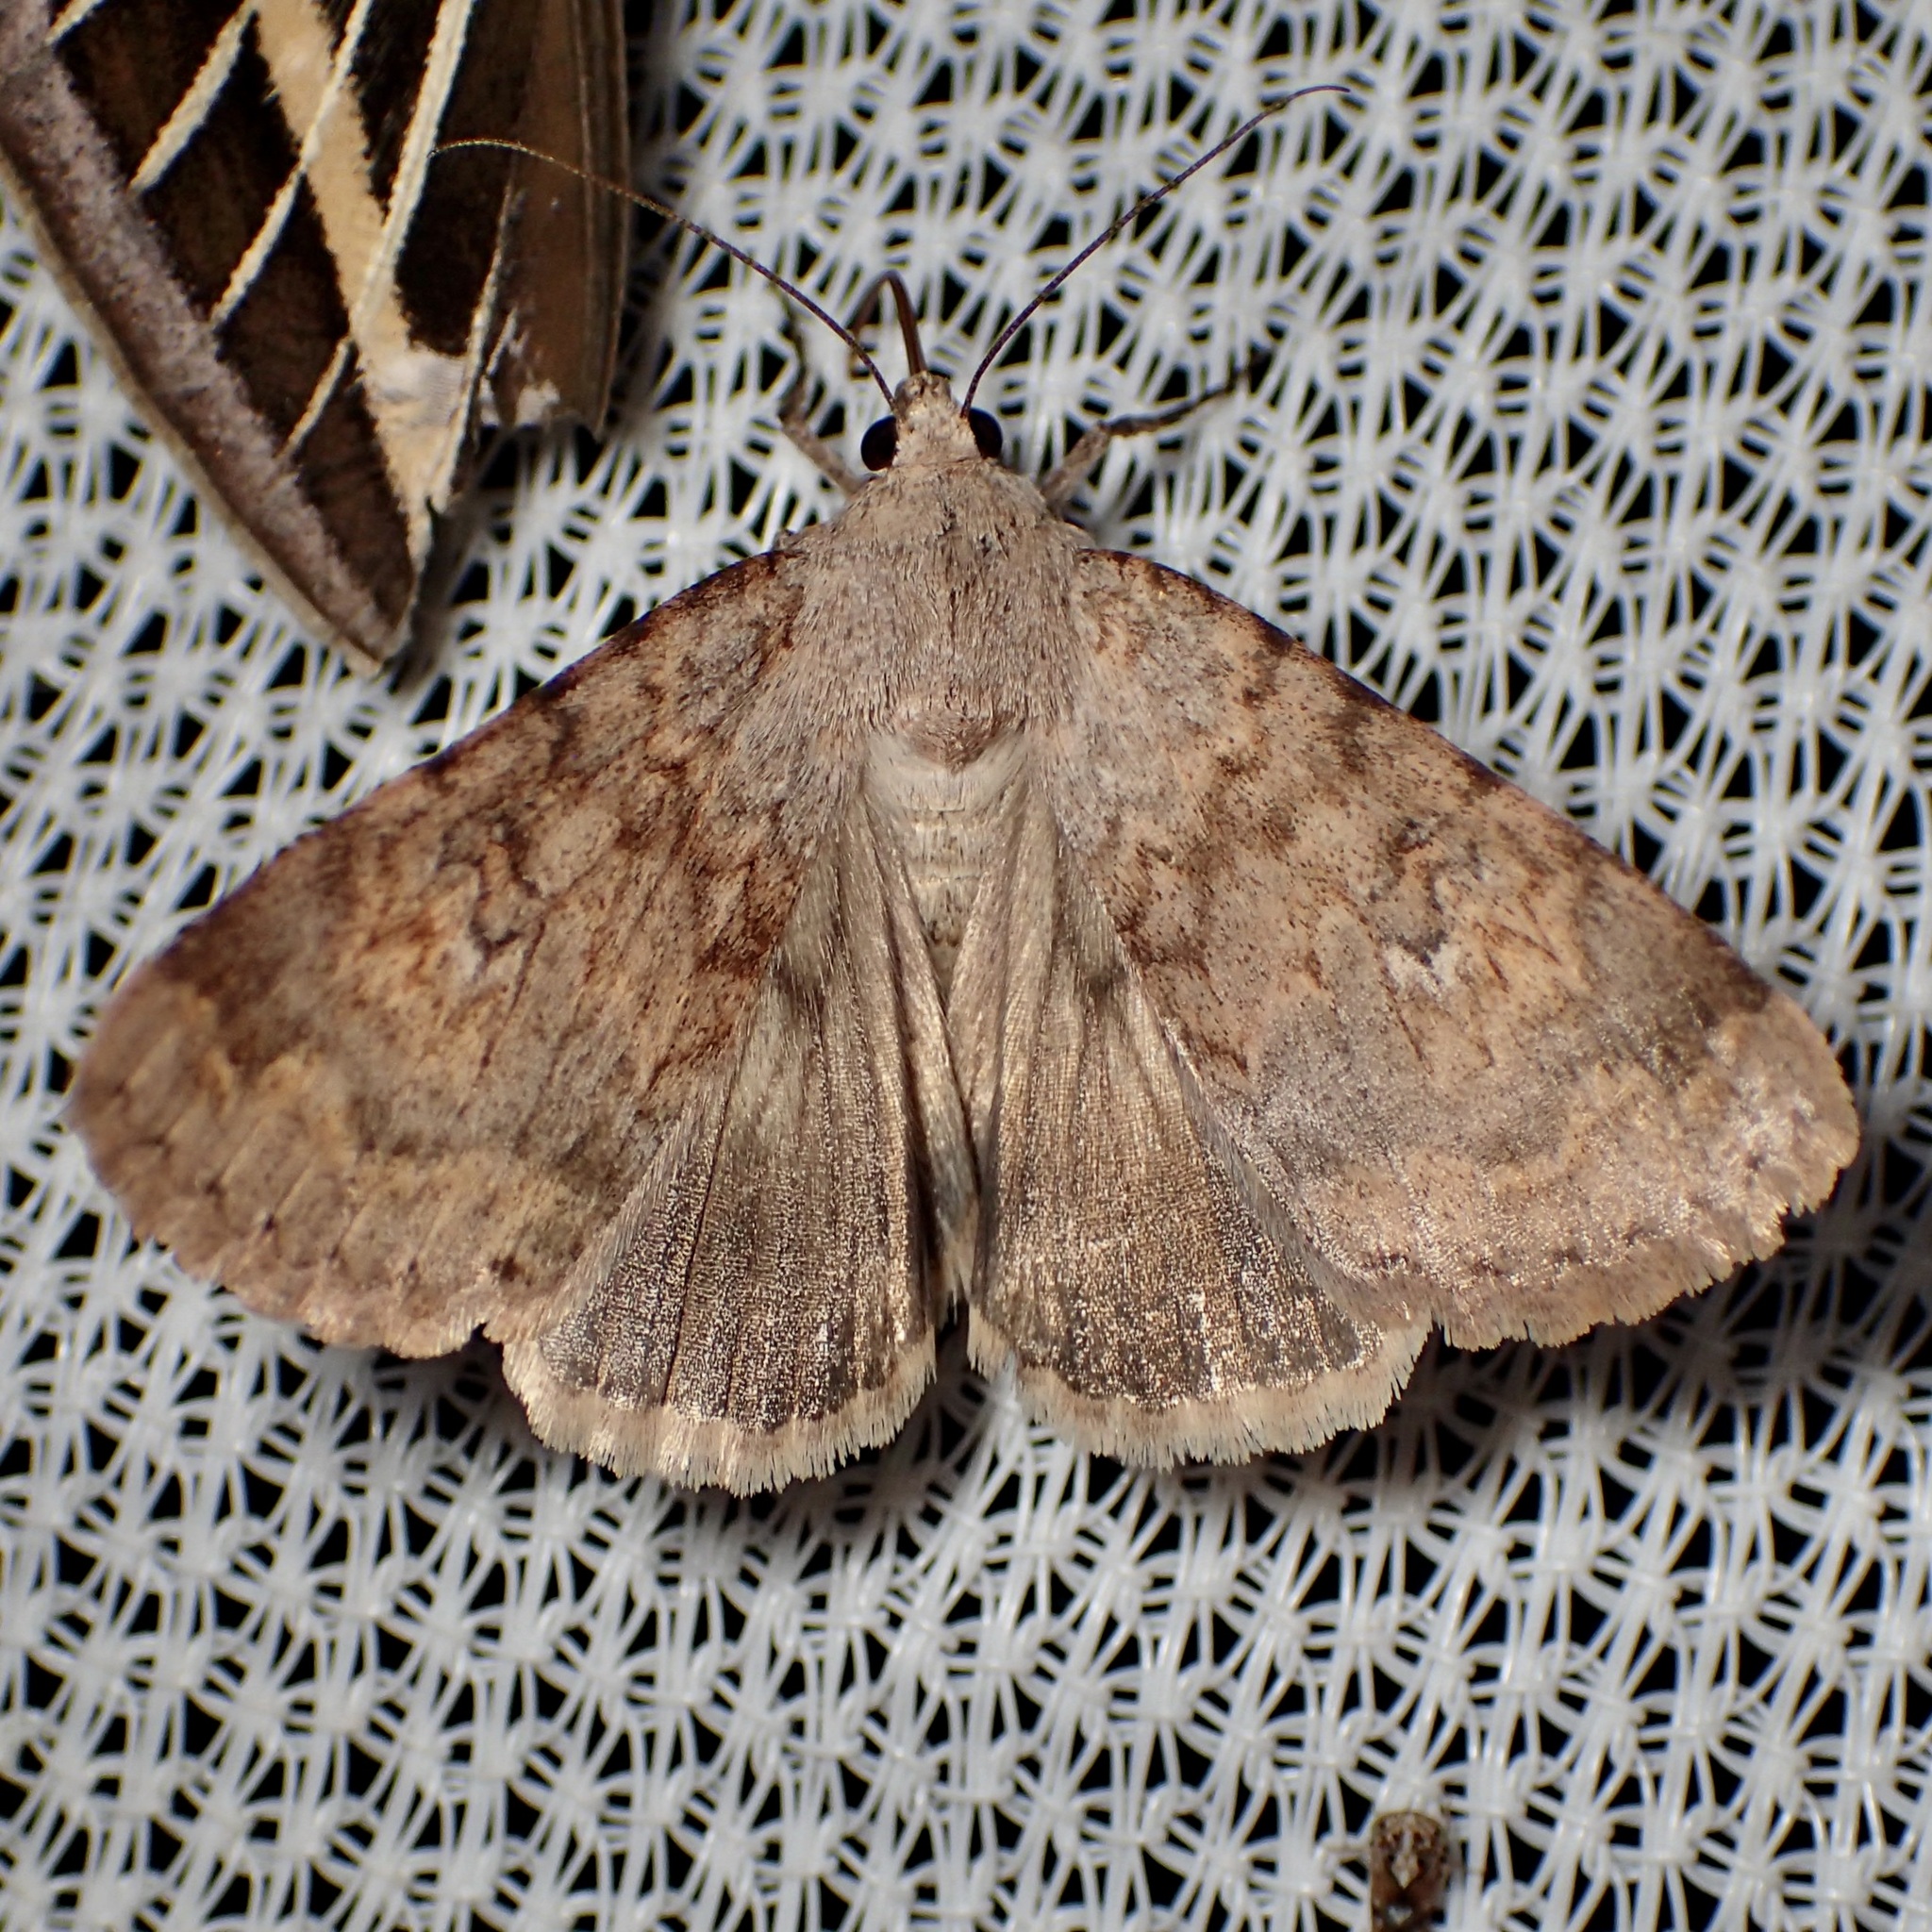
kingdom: Animalia
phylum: Arthropoda
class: Insecta
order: Lepidoptera
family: Erebidae
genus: Drasteria
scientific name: Drasteria inepta
